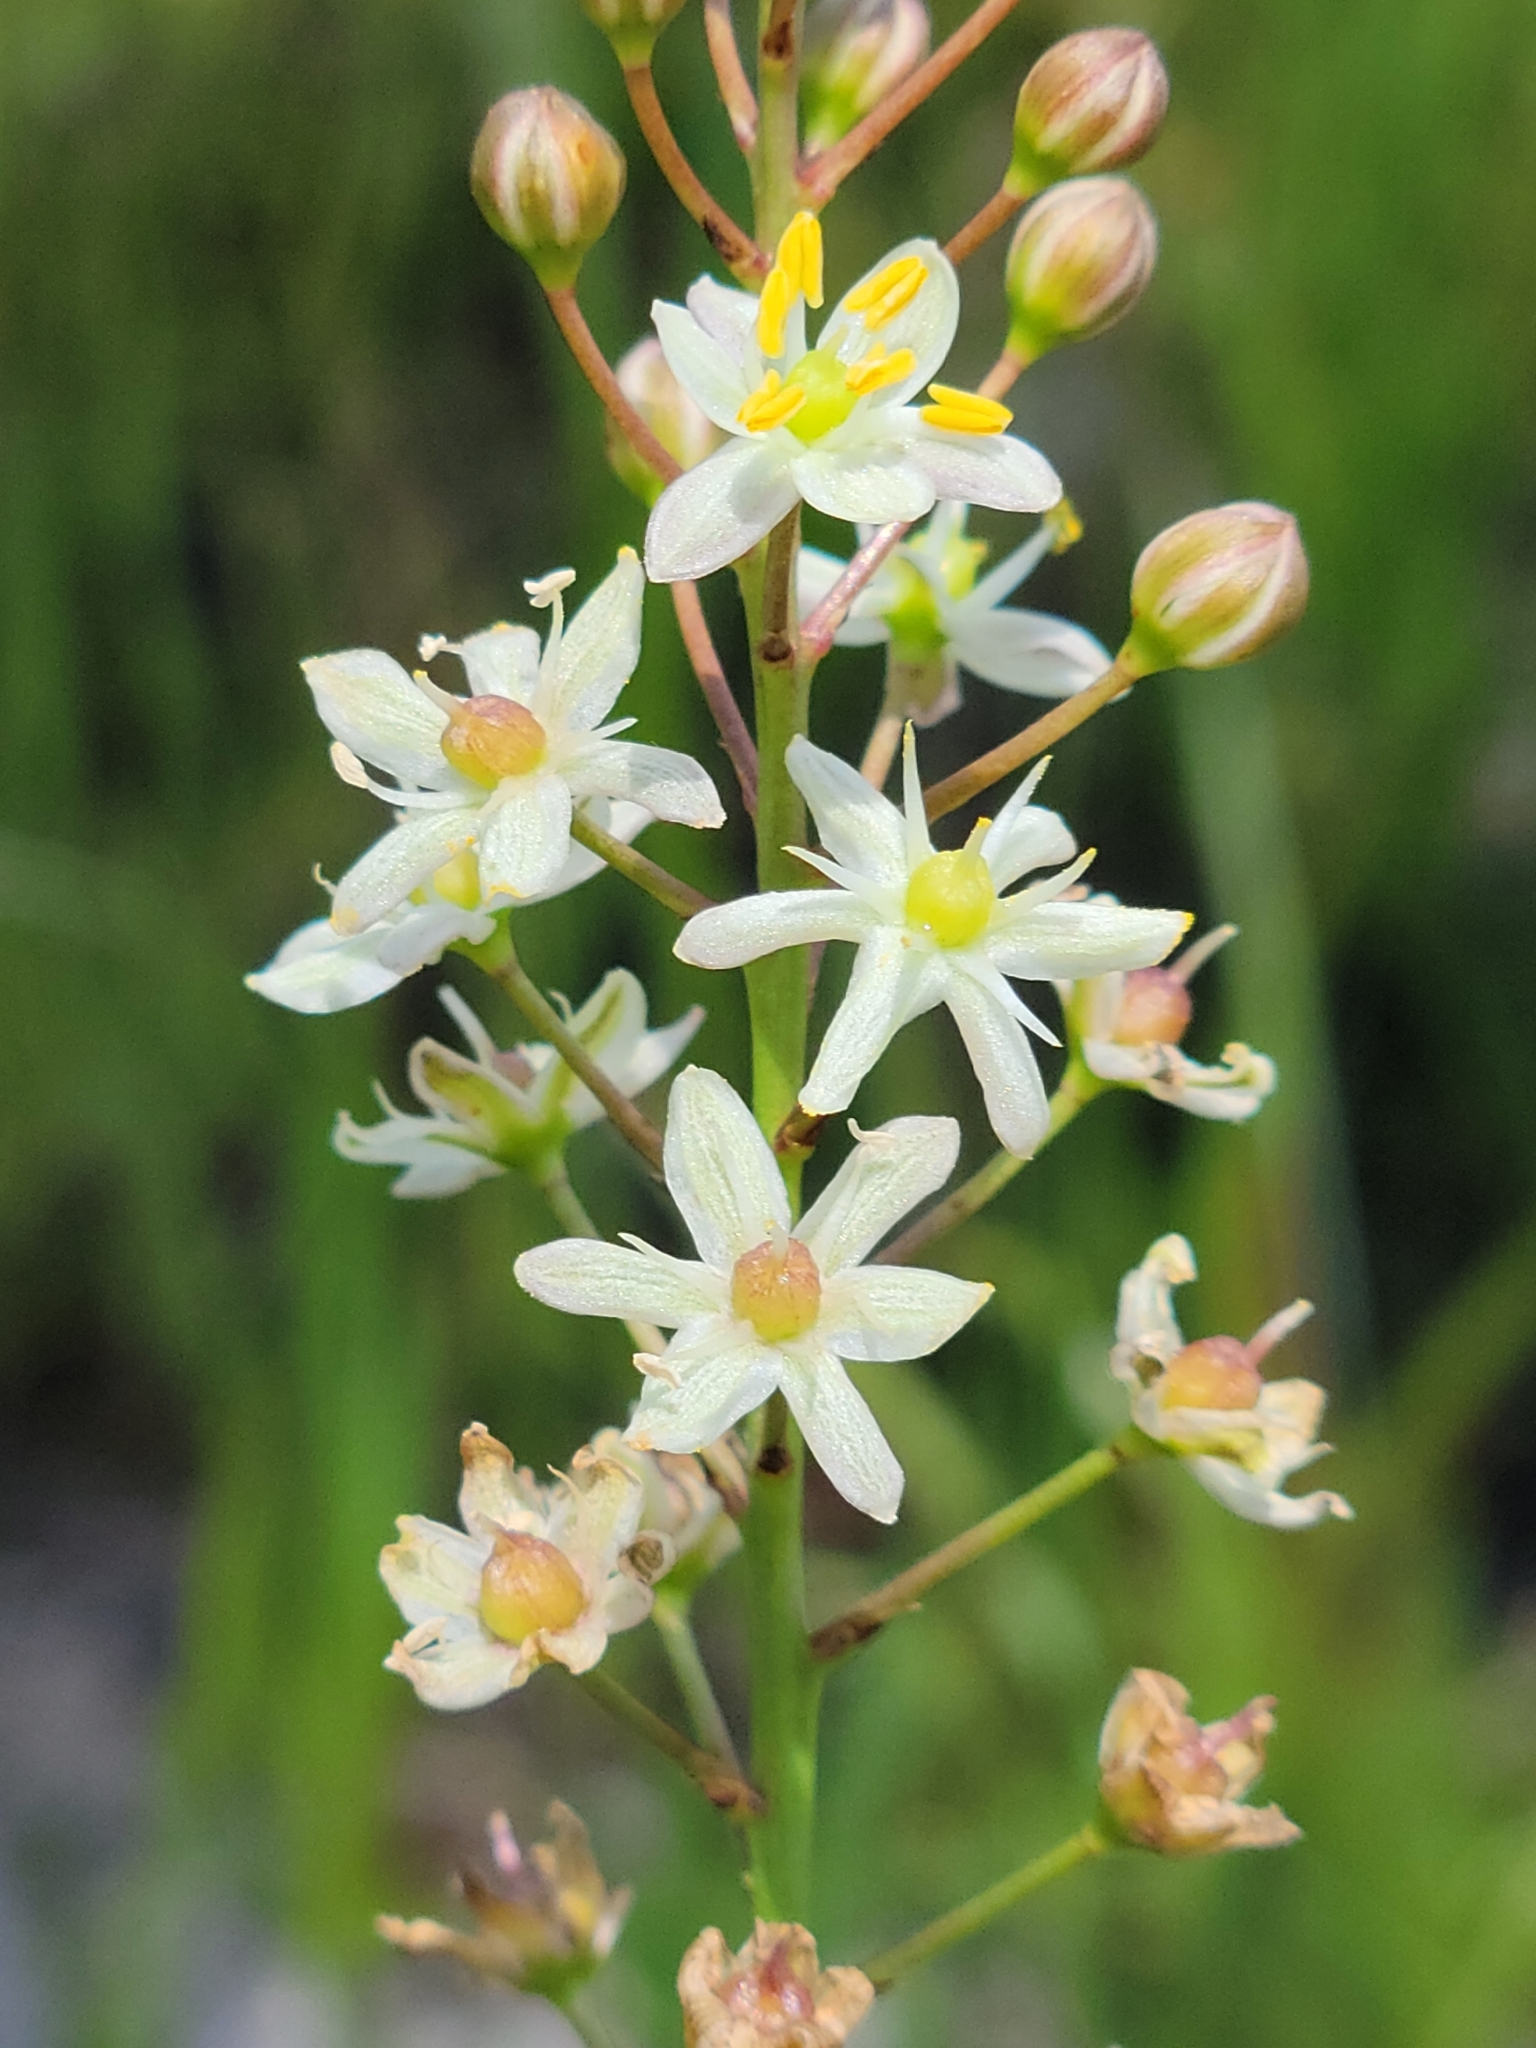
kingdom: Plantae
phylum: Tracheophyta
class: Liliopsida
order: Asparagales
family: Asparagaceae
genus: Schoenolirion
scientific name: Schoenolirion albiflorum
